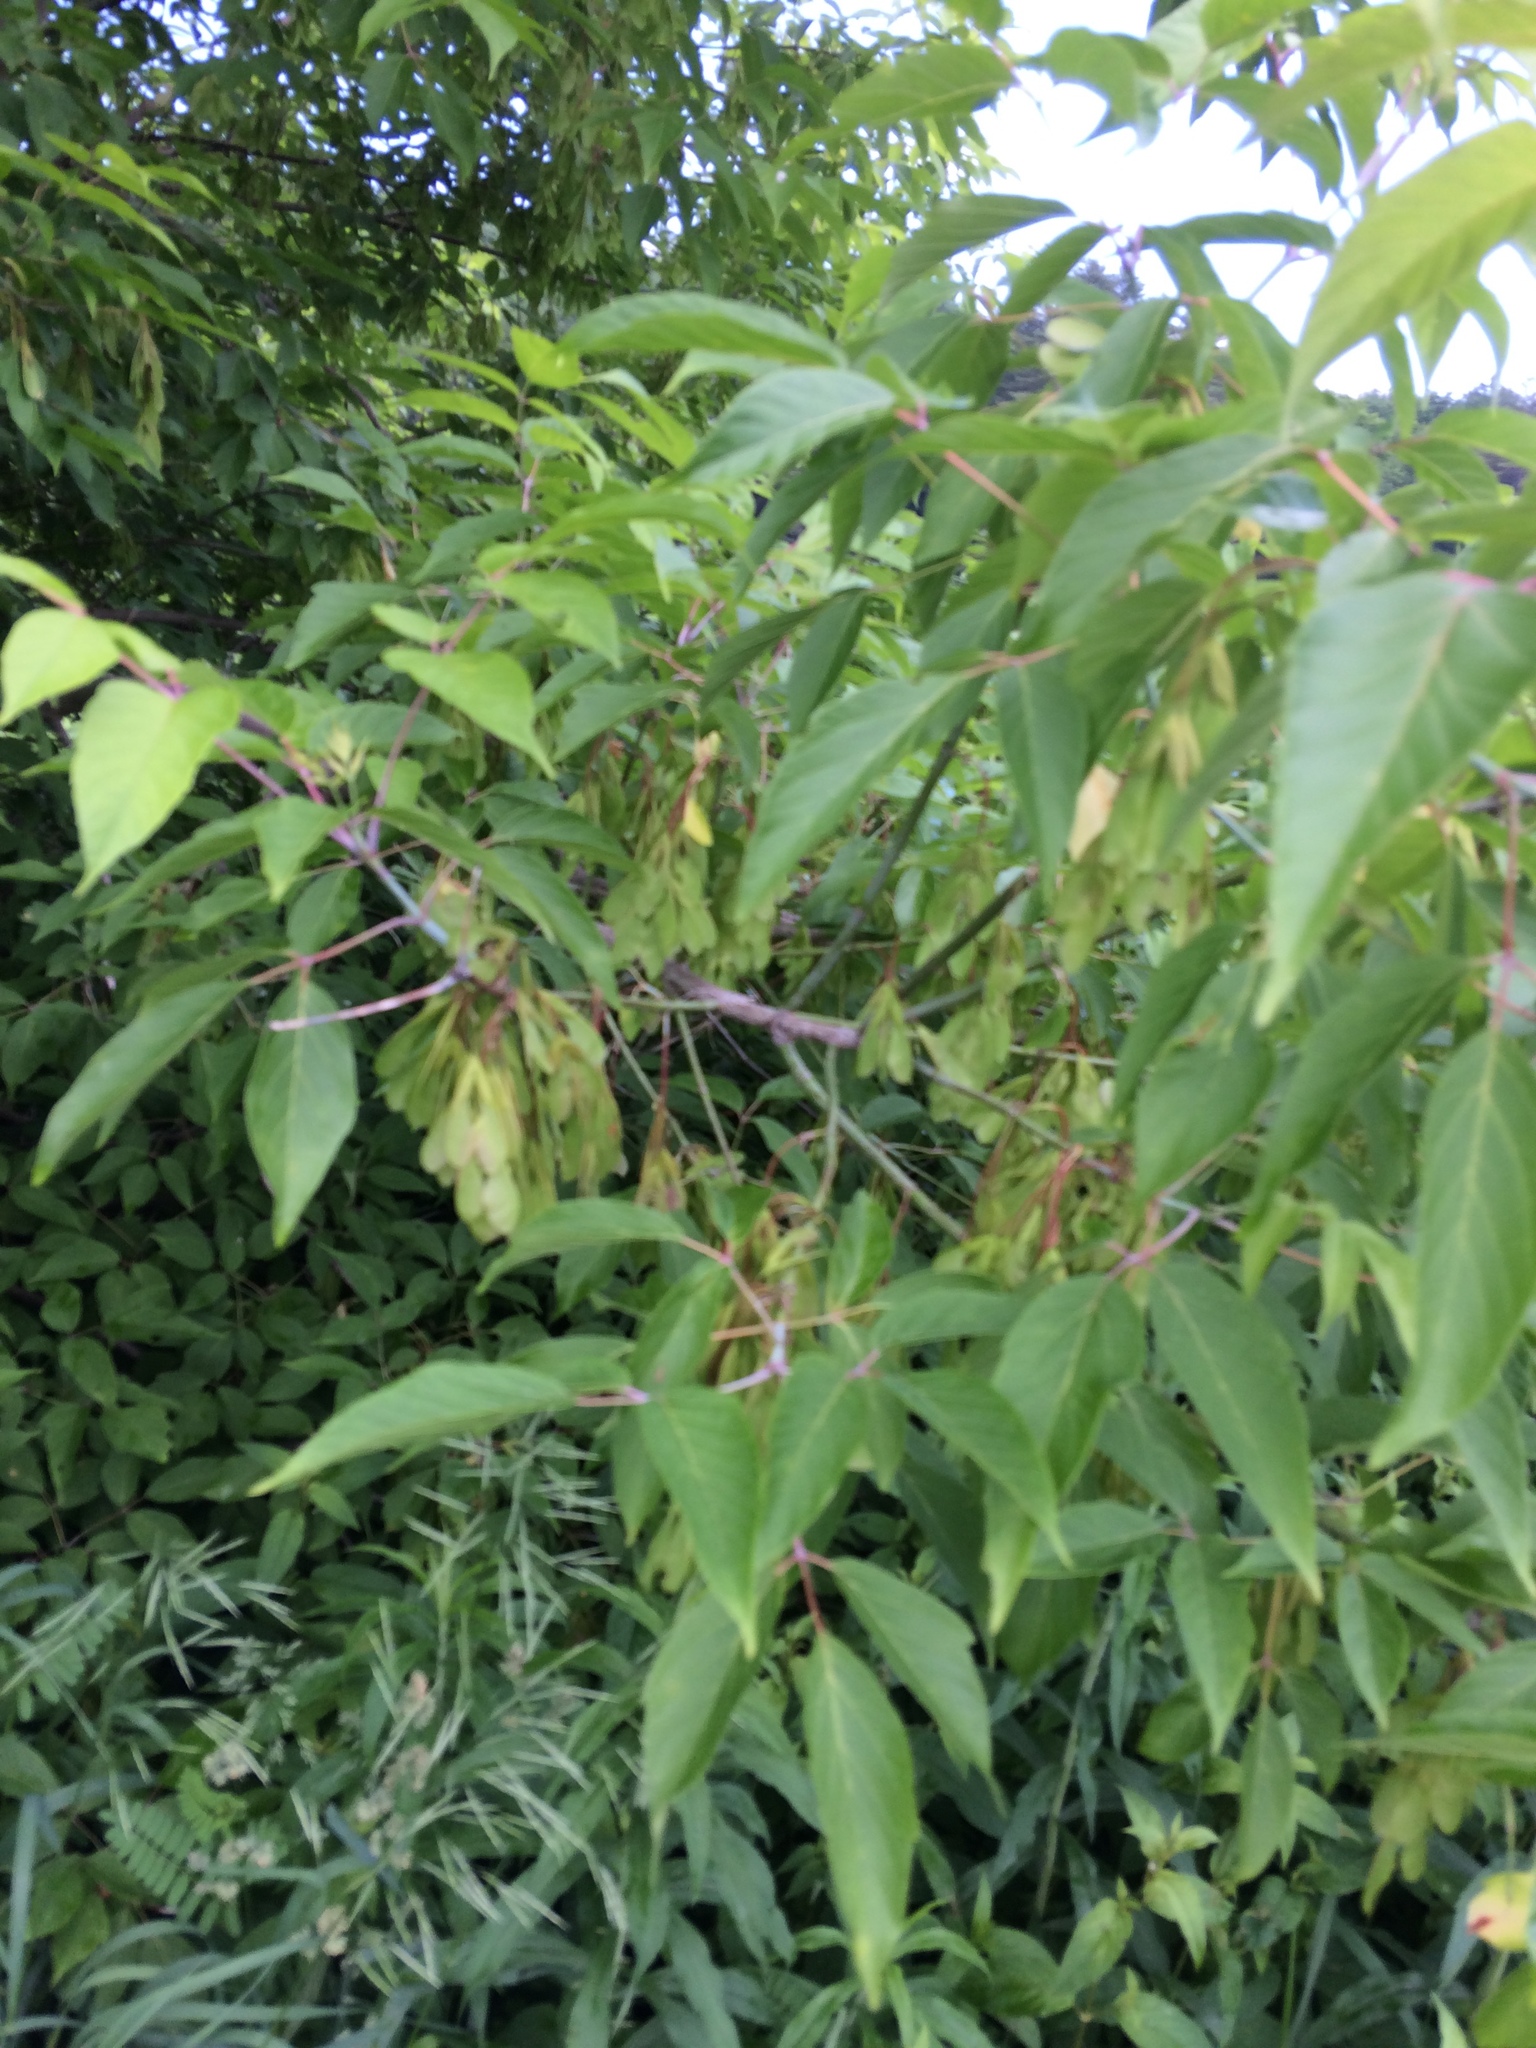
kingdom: Plantae
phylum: Tracheophyta
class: Magnoliopsida
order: Sapindales
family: Sapindaceae
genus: Acer
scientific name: Acer negundo
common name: Ashleaf maple
